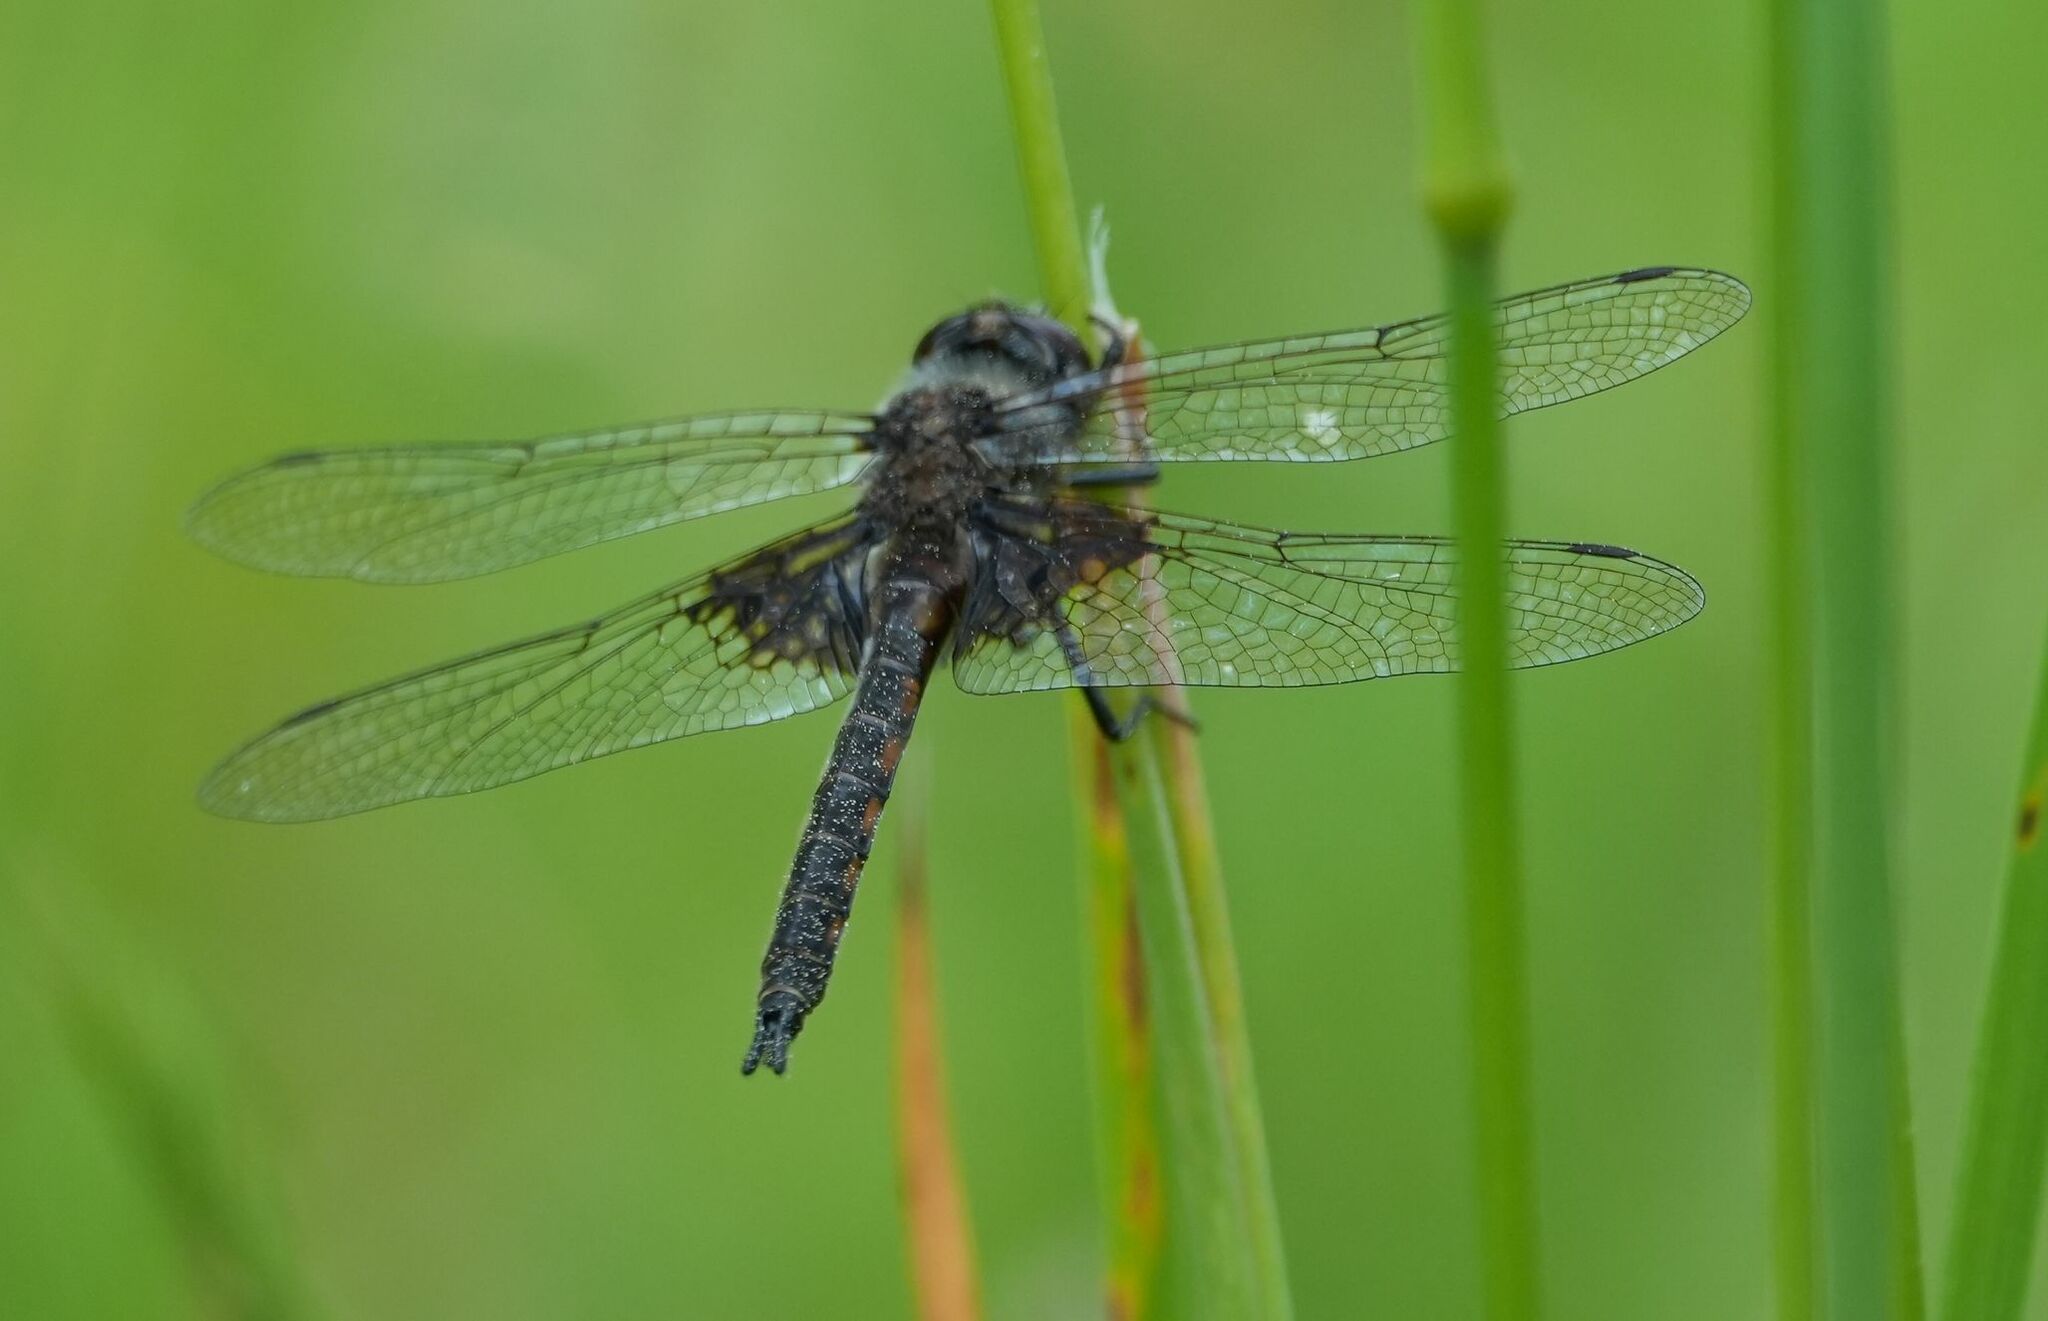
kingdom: Animalia
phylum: Arthropoda
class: Insecta
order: Odonata
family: Corduliidae
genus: Epitheca
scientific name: Epitheca cynosura
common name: Common baskettail
